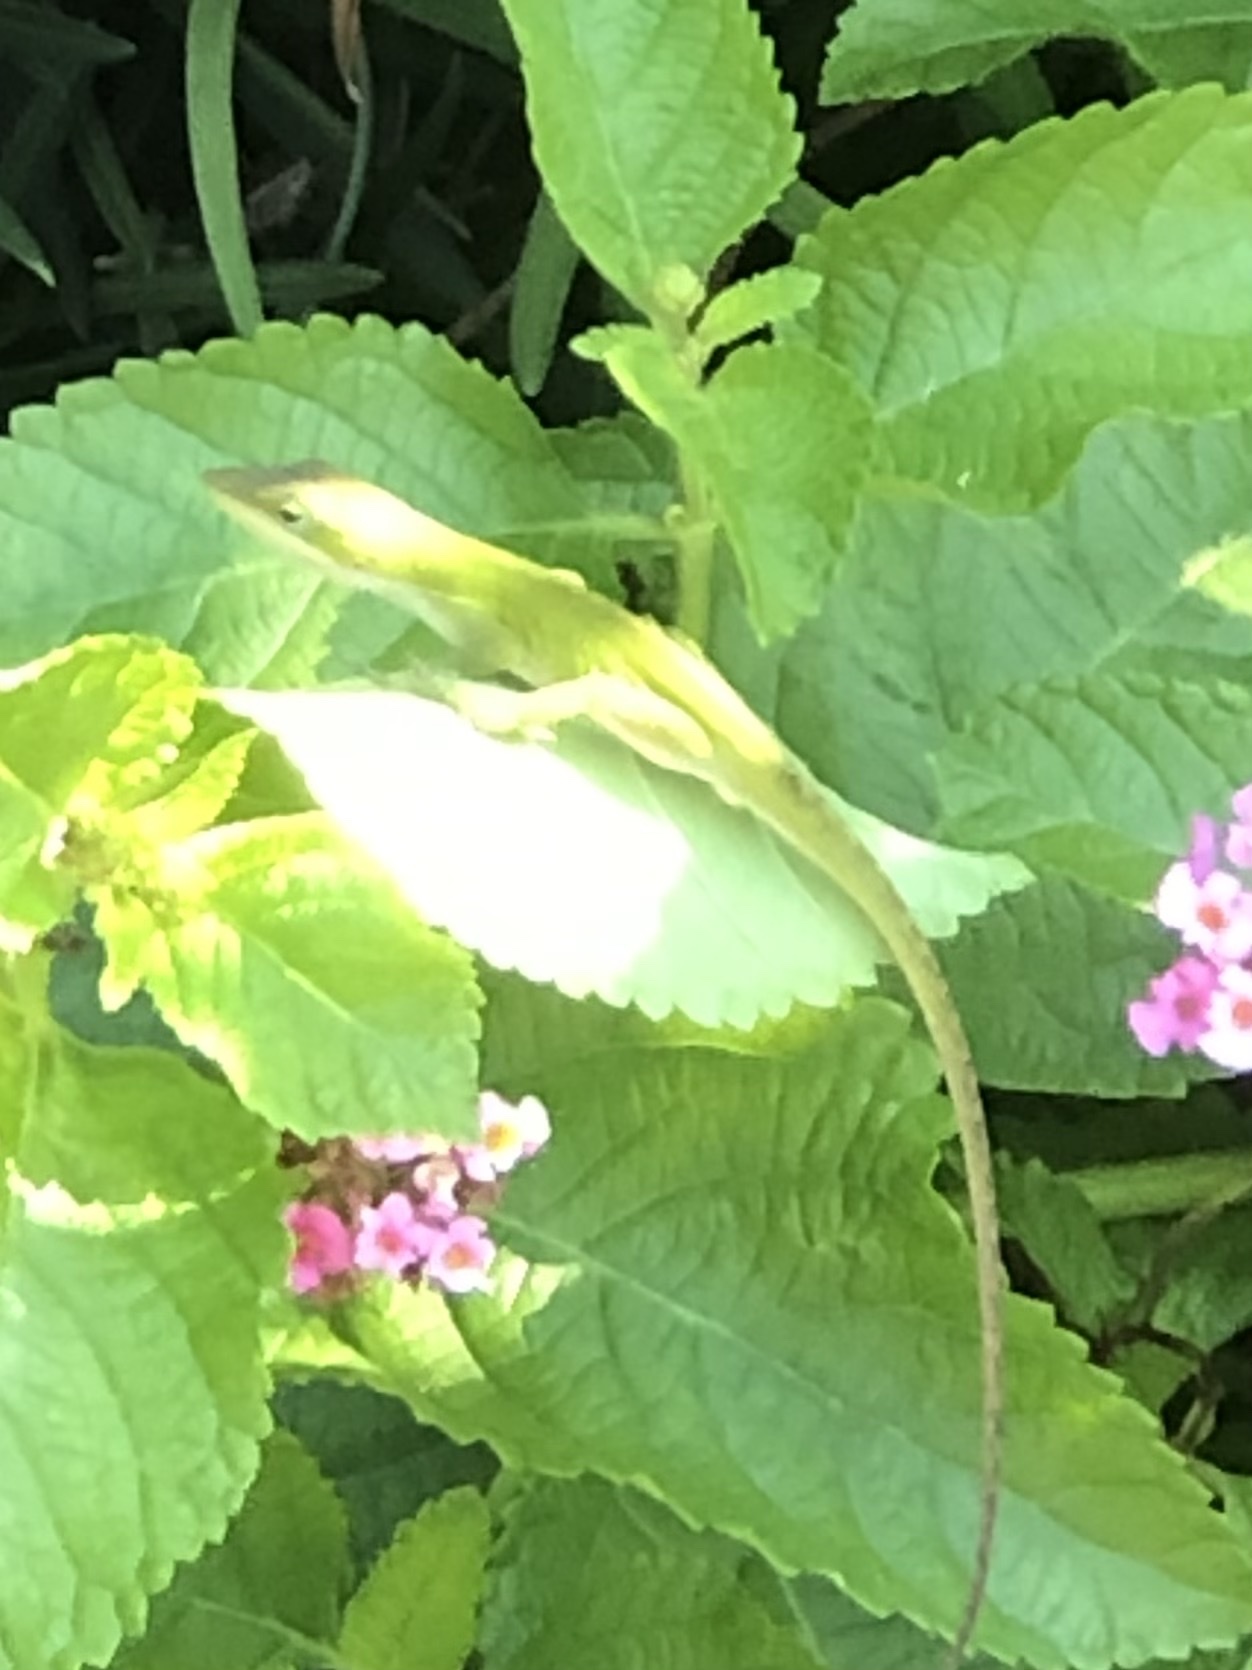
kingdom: Animalia
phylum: Chordata
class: Squamata
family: Dactyloidae
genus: Anolis
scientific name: Anolis carolinensis
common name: Green anole
